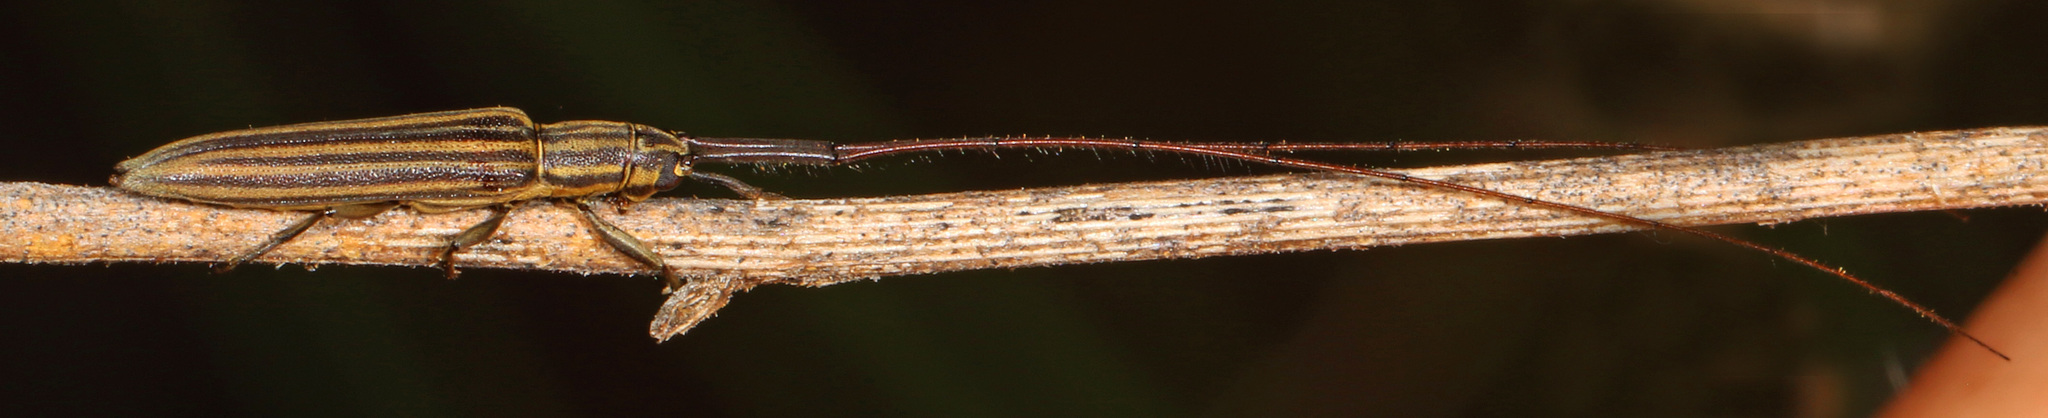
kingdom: Animalia
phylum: Arthropoda
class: Insecta
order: Coleoptera
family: Cerambycidae
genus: Hippopsis
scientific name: Hippopsis
